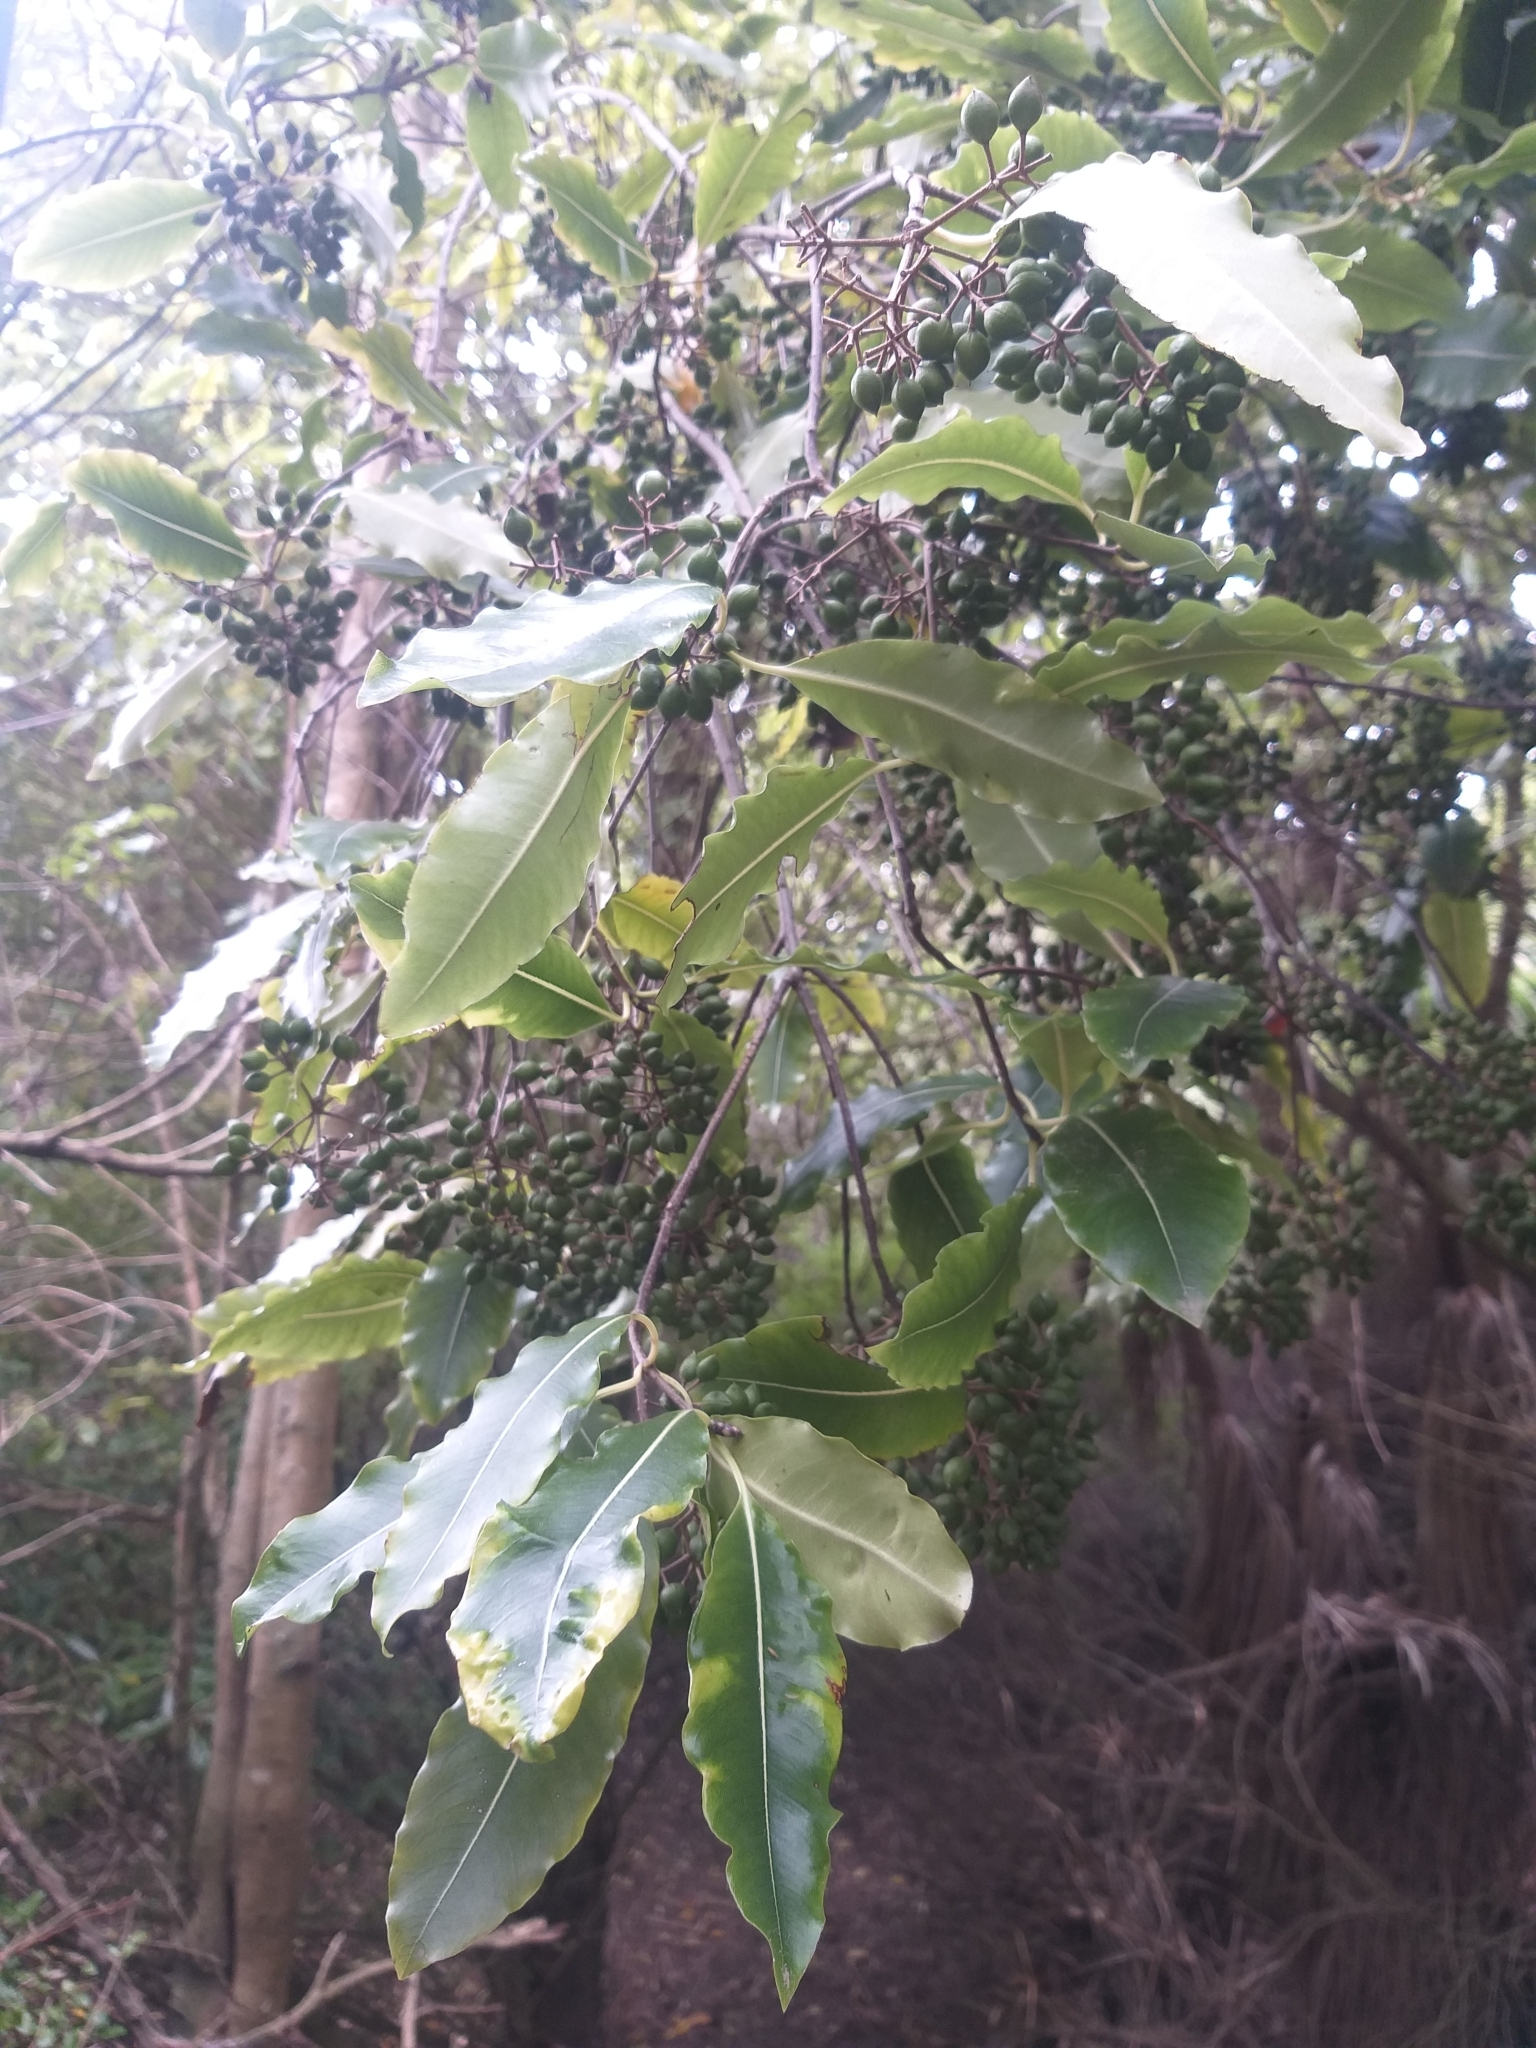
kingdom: Plantae
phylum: Tracheophyta
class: Magnoliopsida
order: Apiales
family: Pittosporaceae
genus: Pittosporum
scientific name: Pittosporum eugenioides
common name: Lemonwood
